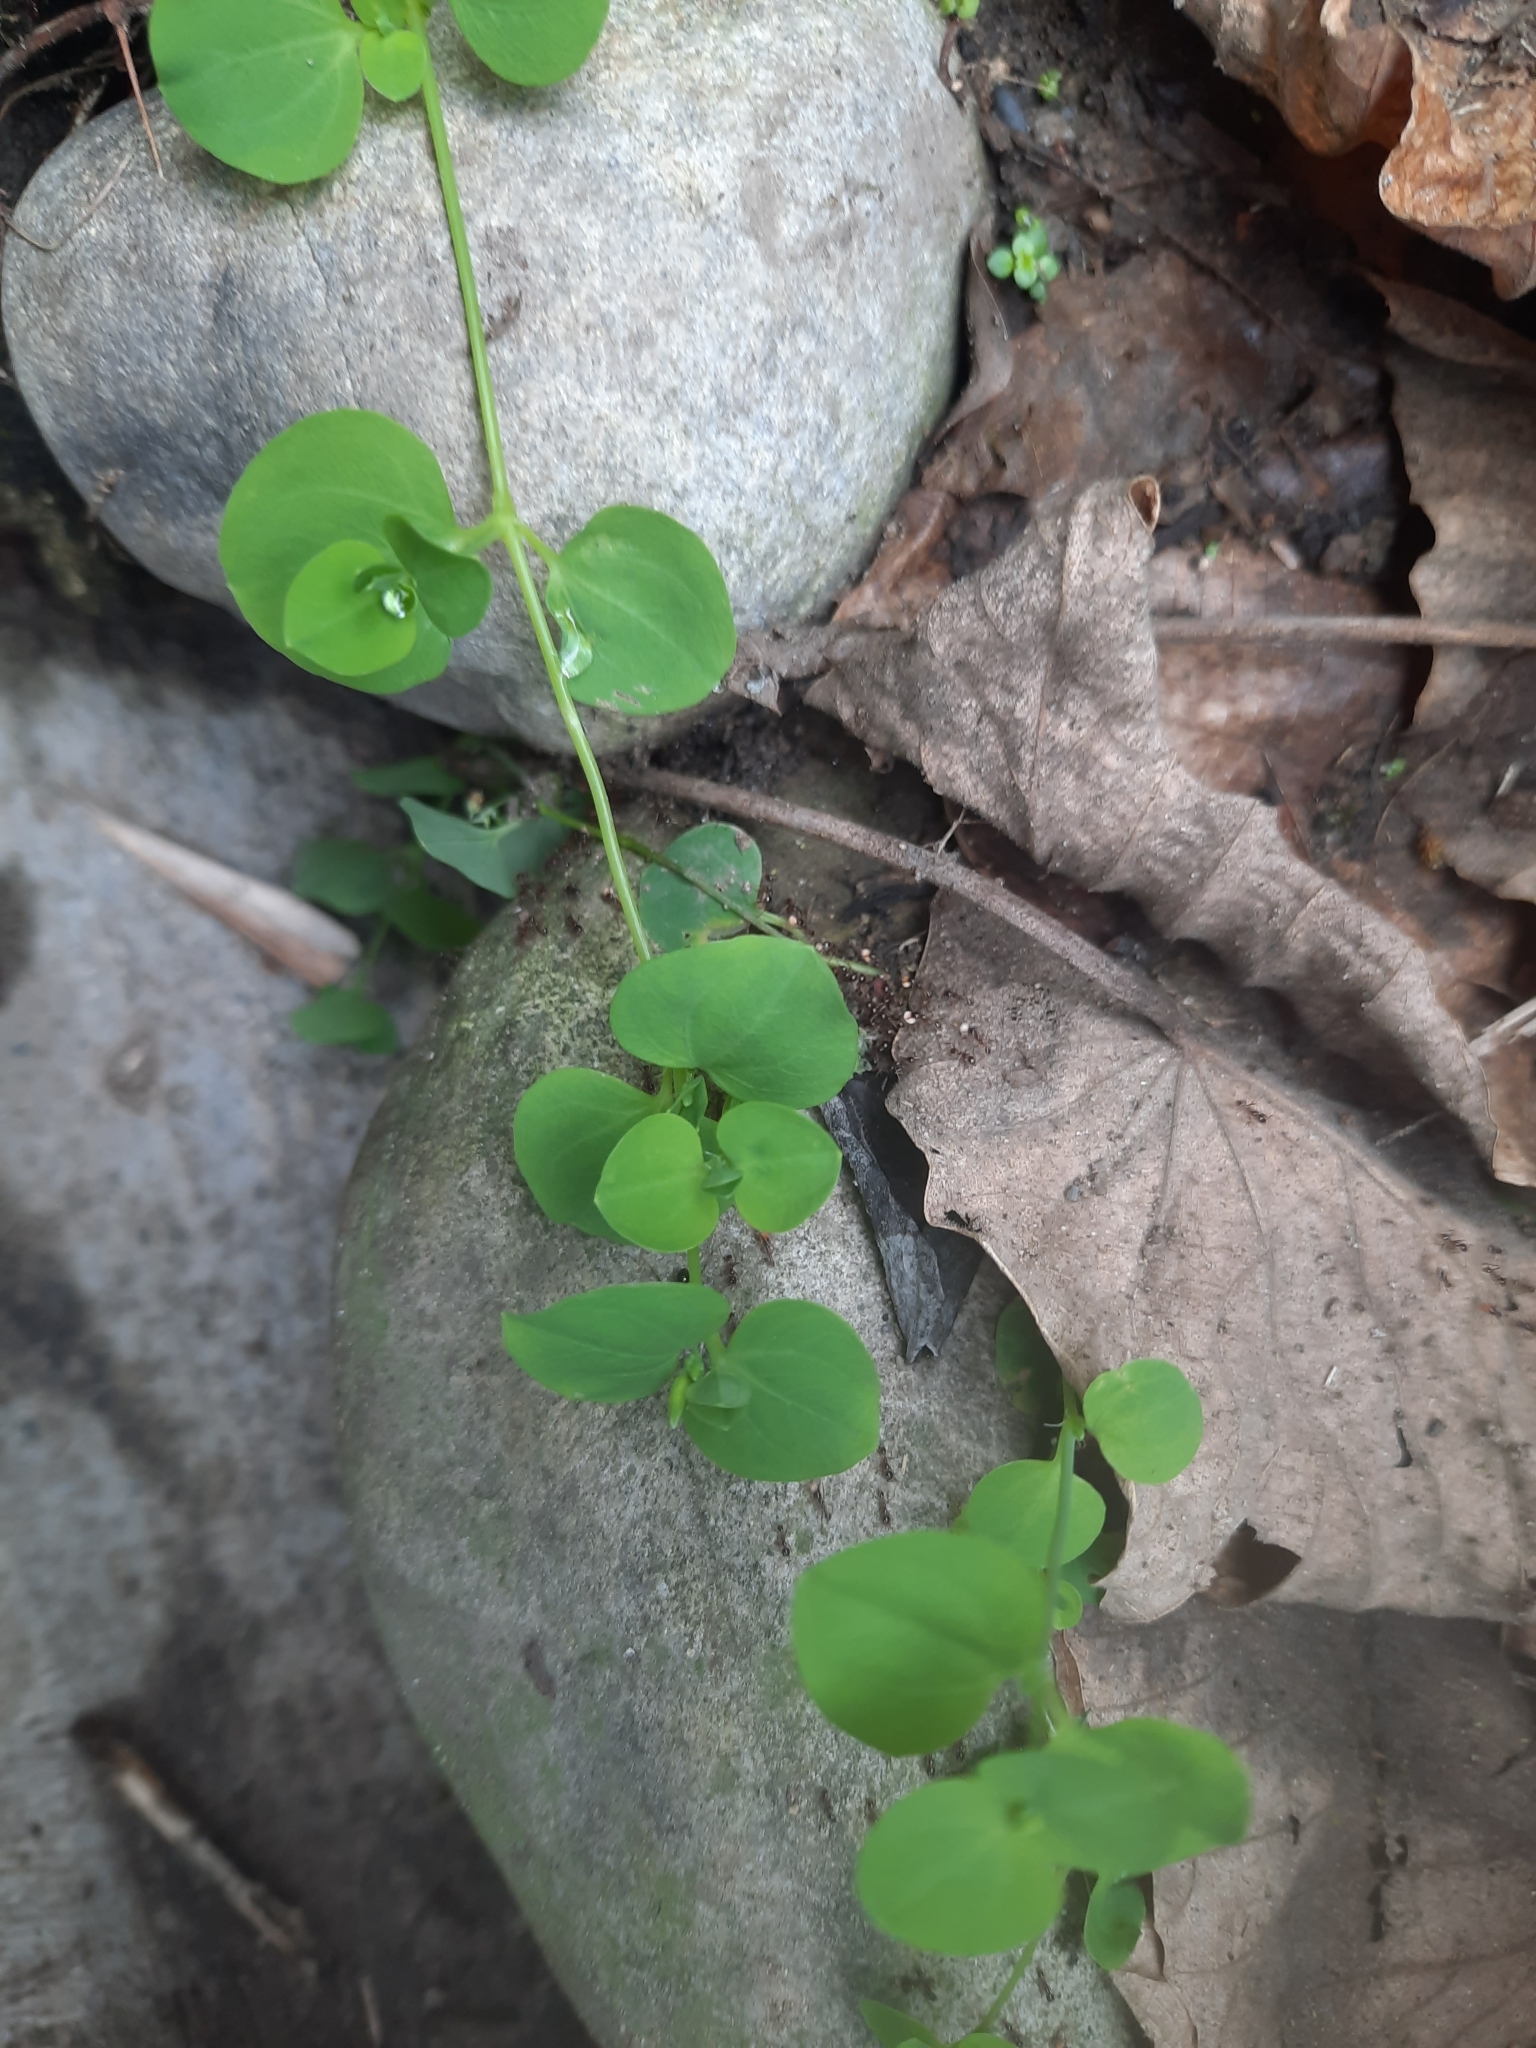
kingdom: Plantae
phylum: Tracheophyta
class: Magnoliopsida
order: Caryophyllales
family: Caryophyllaceae
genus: Drymaria
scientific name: Drymaria cordata
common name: Whitesnow
